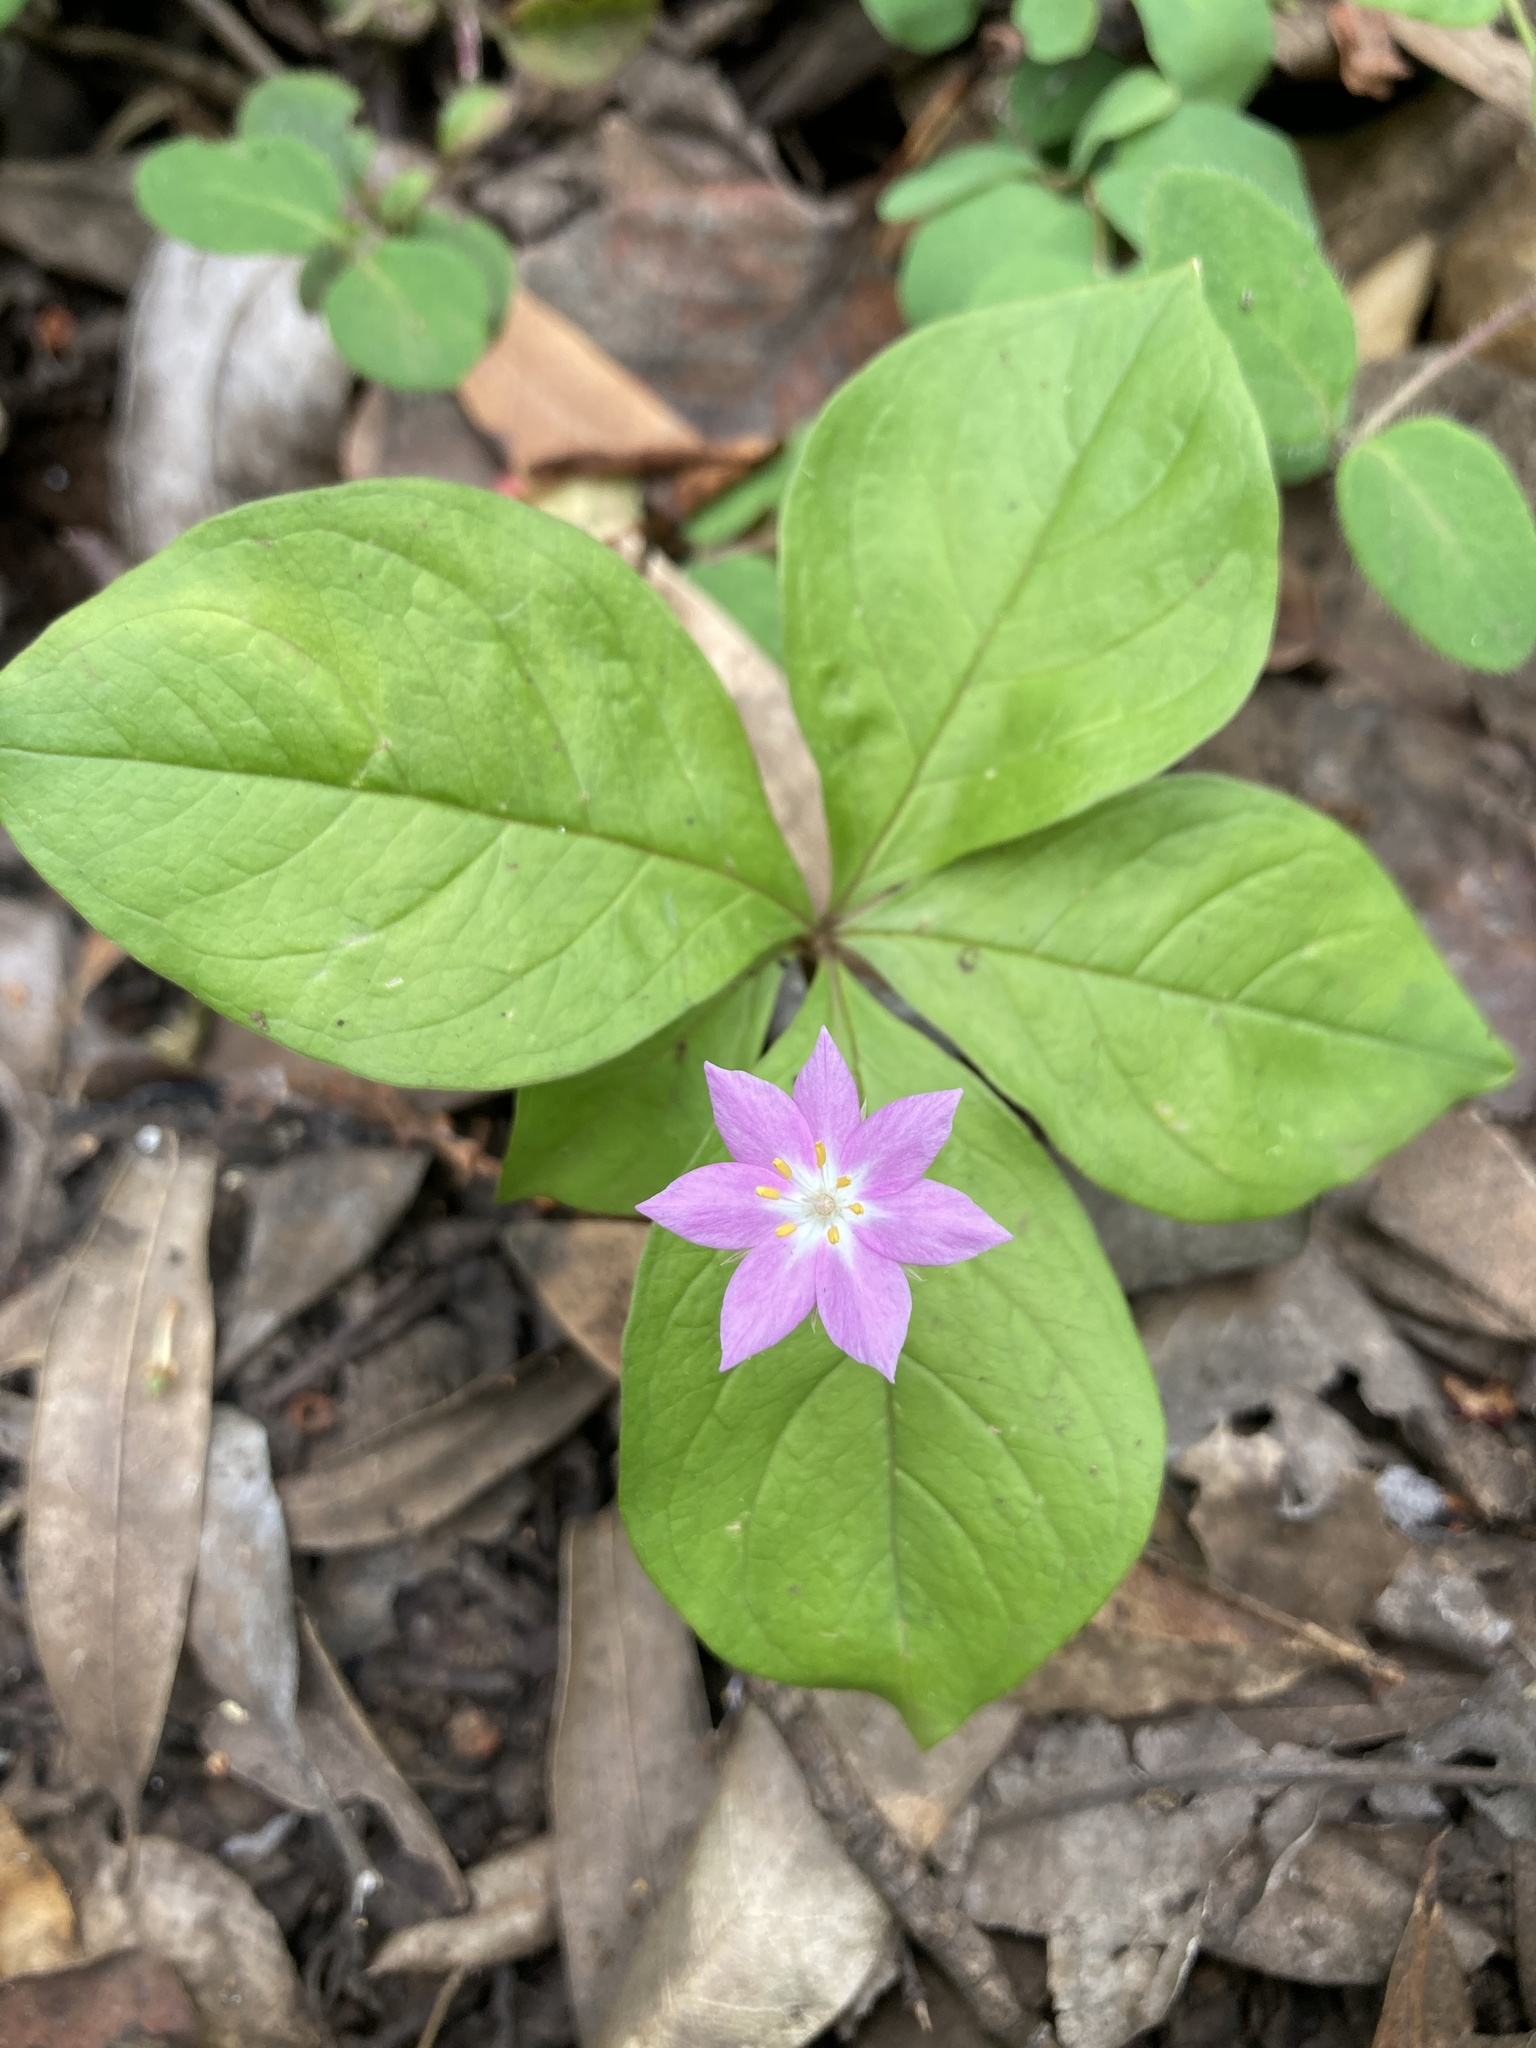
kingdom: Plantae
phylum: Tracheophyta
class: Magnoliopsida
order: Ericales
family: Primulaceae
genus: Lysimachia
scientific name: Lysimachia latifolia
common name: Pacific starflower
